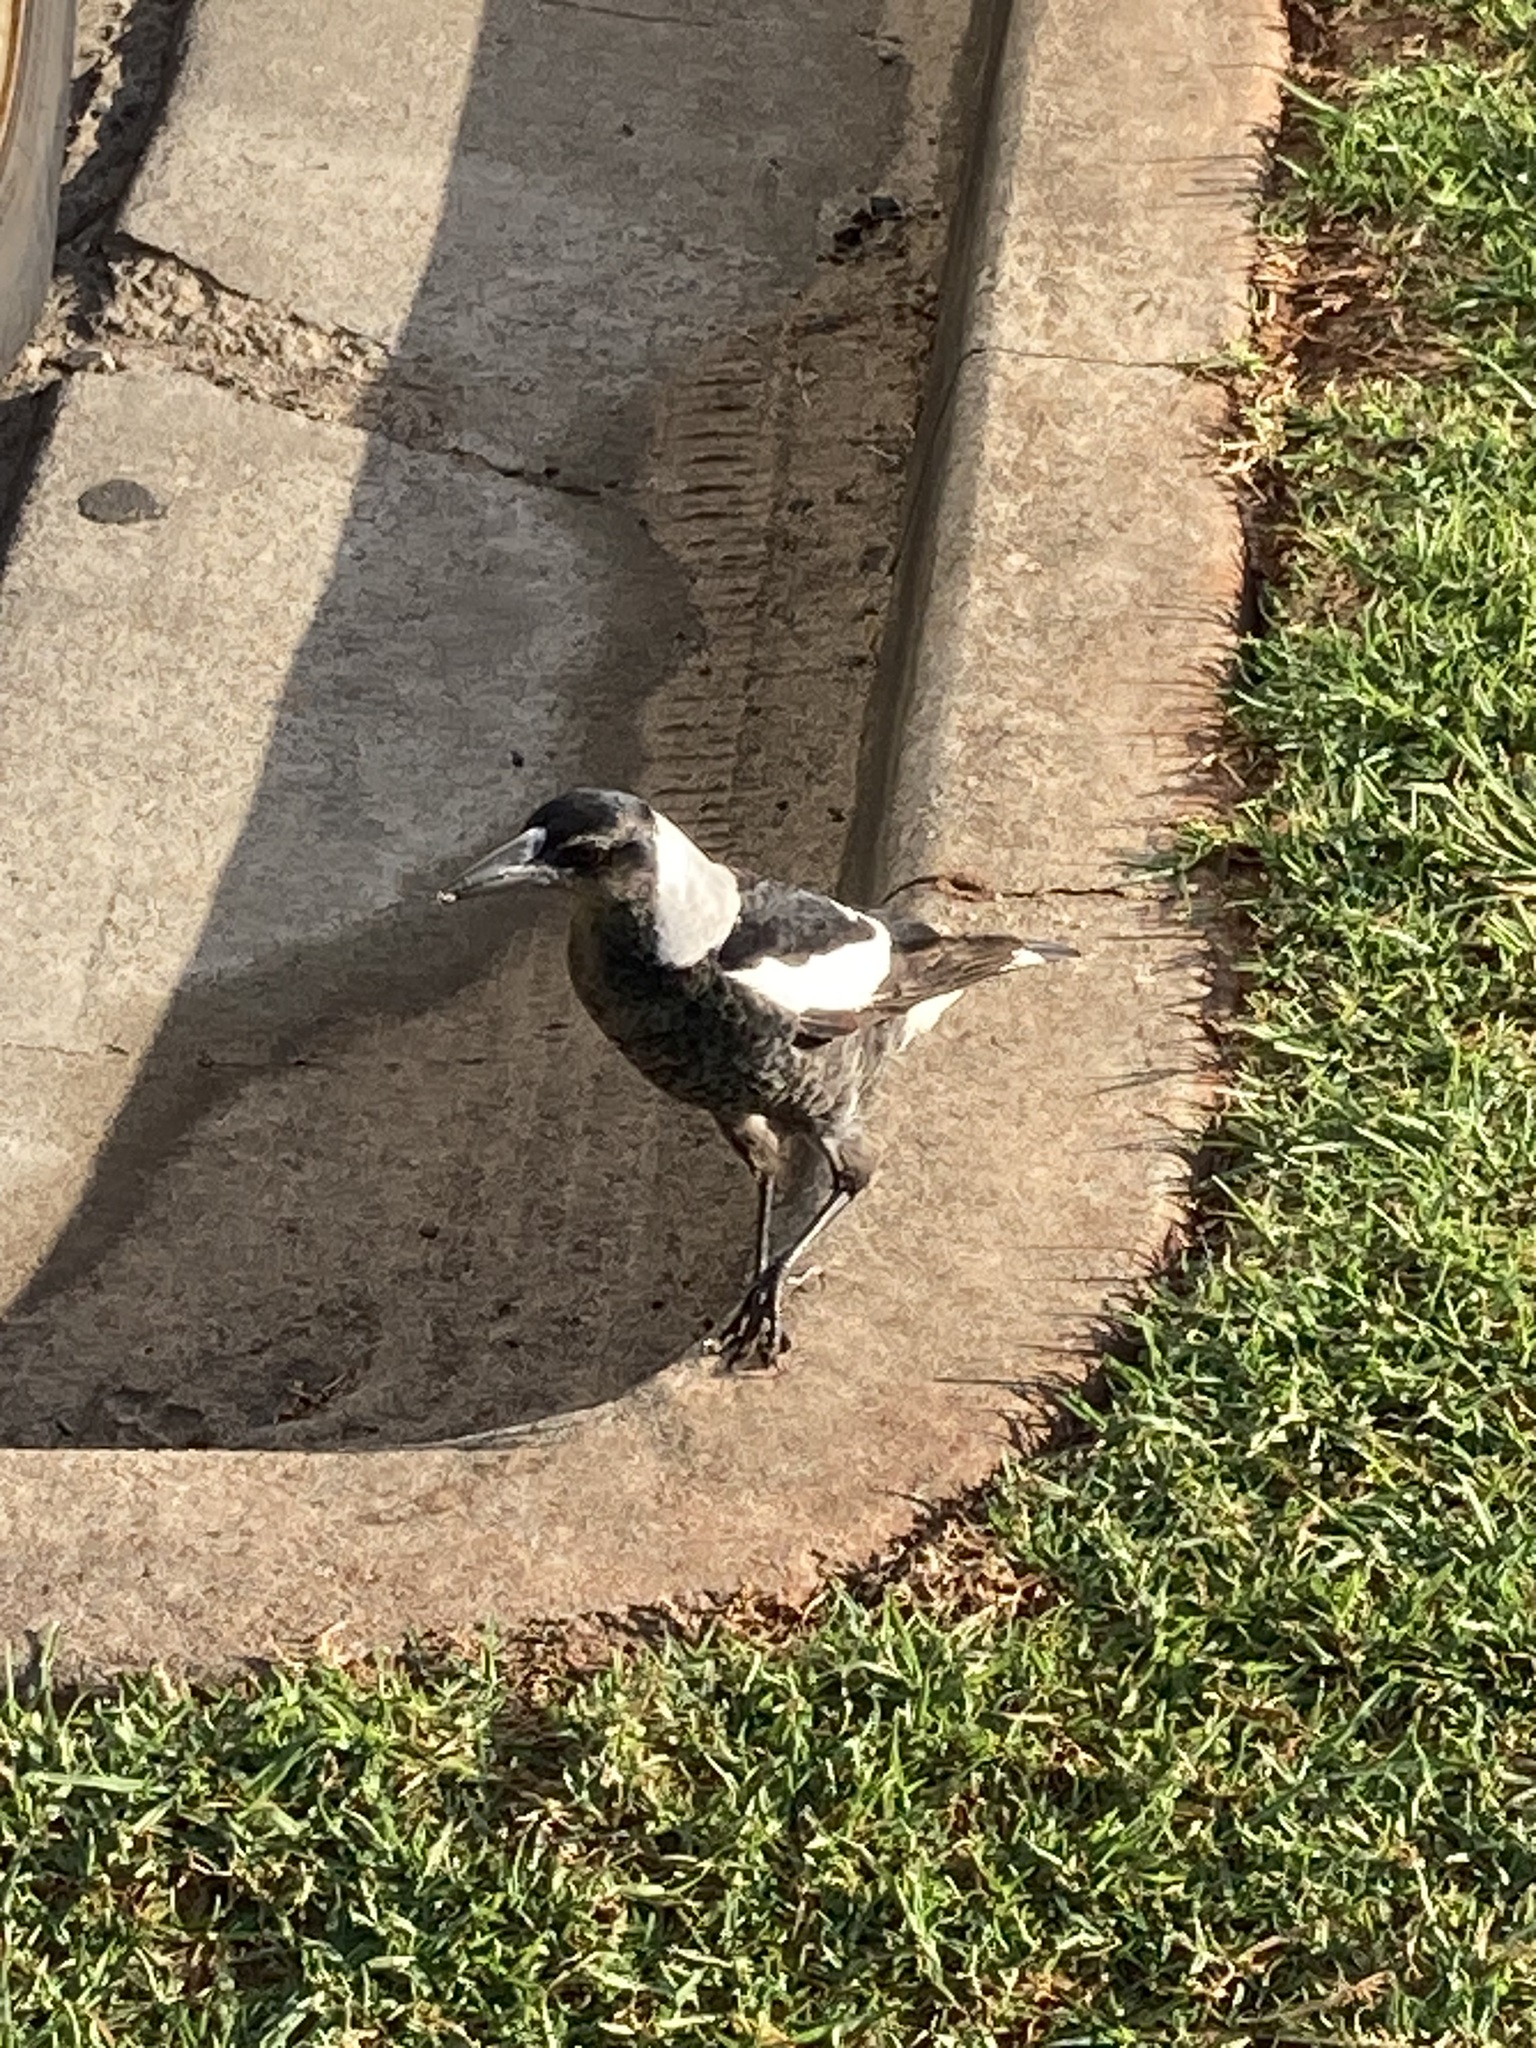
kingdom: Animalia
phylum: Chordata
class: Aves
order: Passeriformes
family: Cracticidae
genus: Gymnorhina
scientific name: Gymnorhina tibicen
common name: Australian magpie
